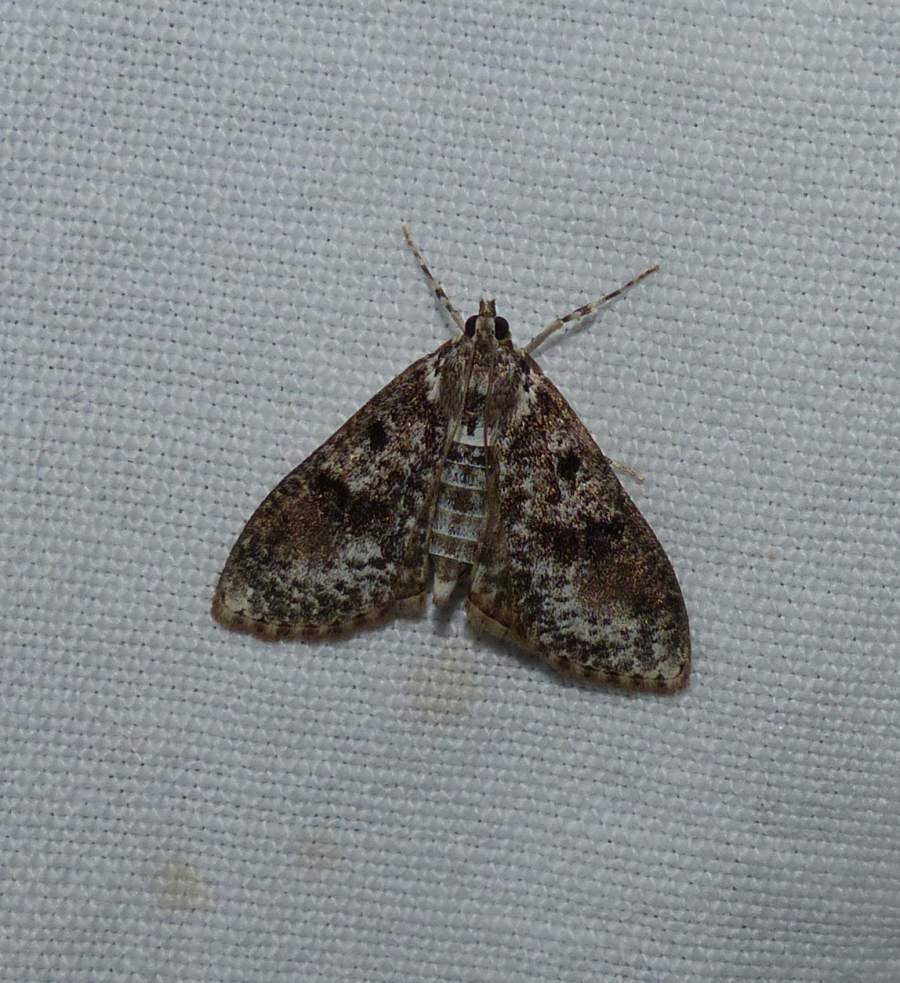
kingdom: Animalia
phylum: Arthropoda
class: Insecta
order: Lepidoptera
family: Crambidae
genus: Palpita
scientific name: Palpita magniferalis
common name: Splendid palpita moth
